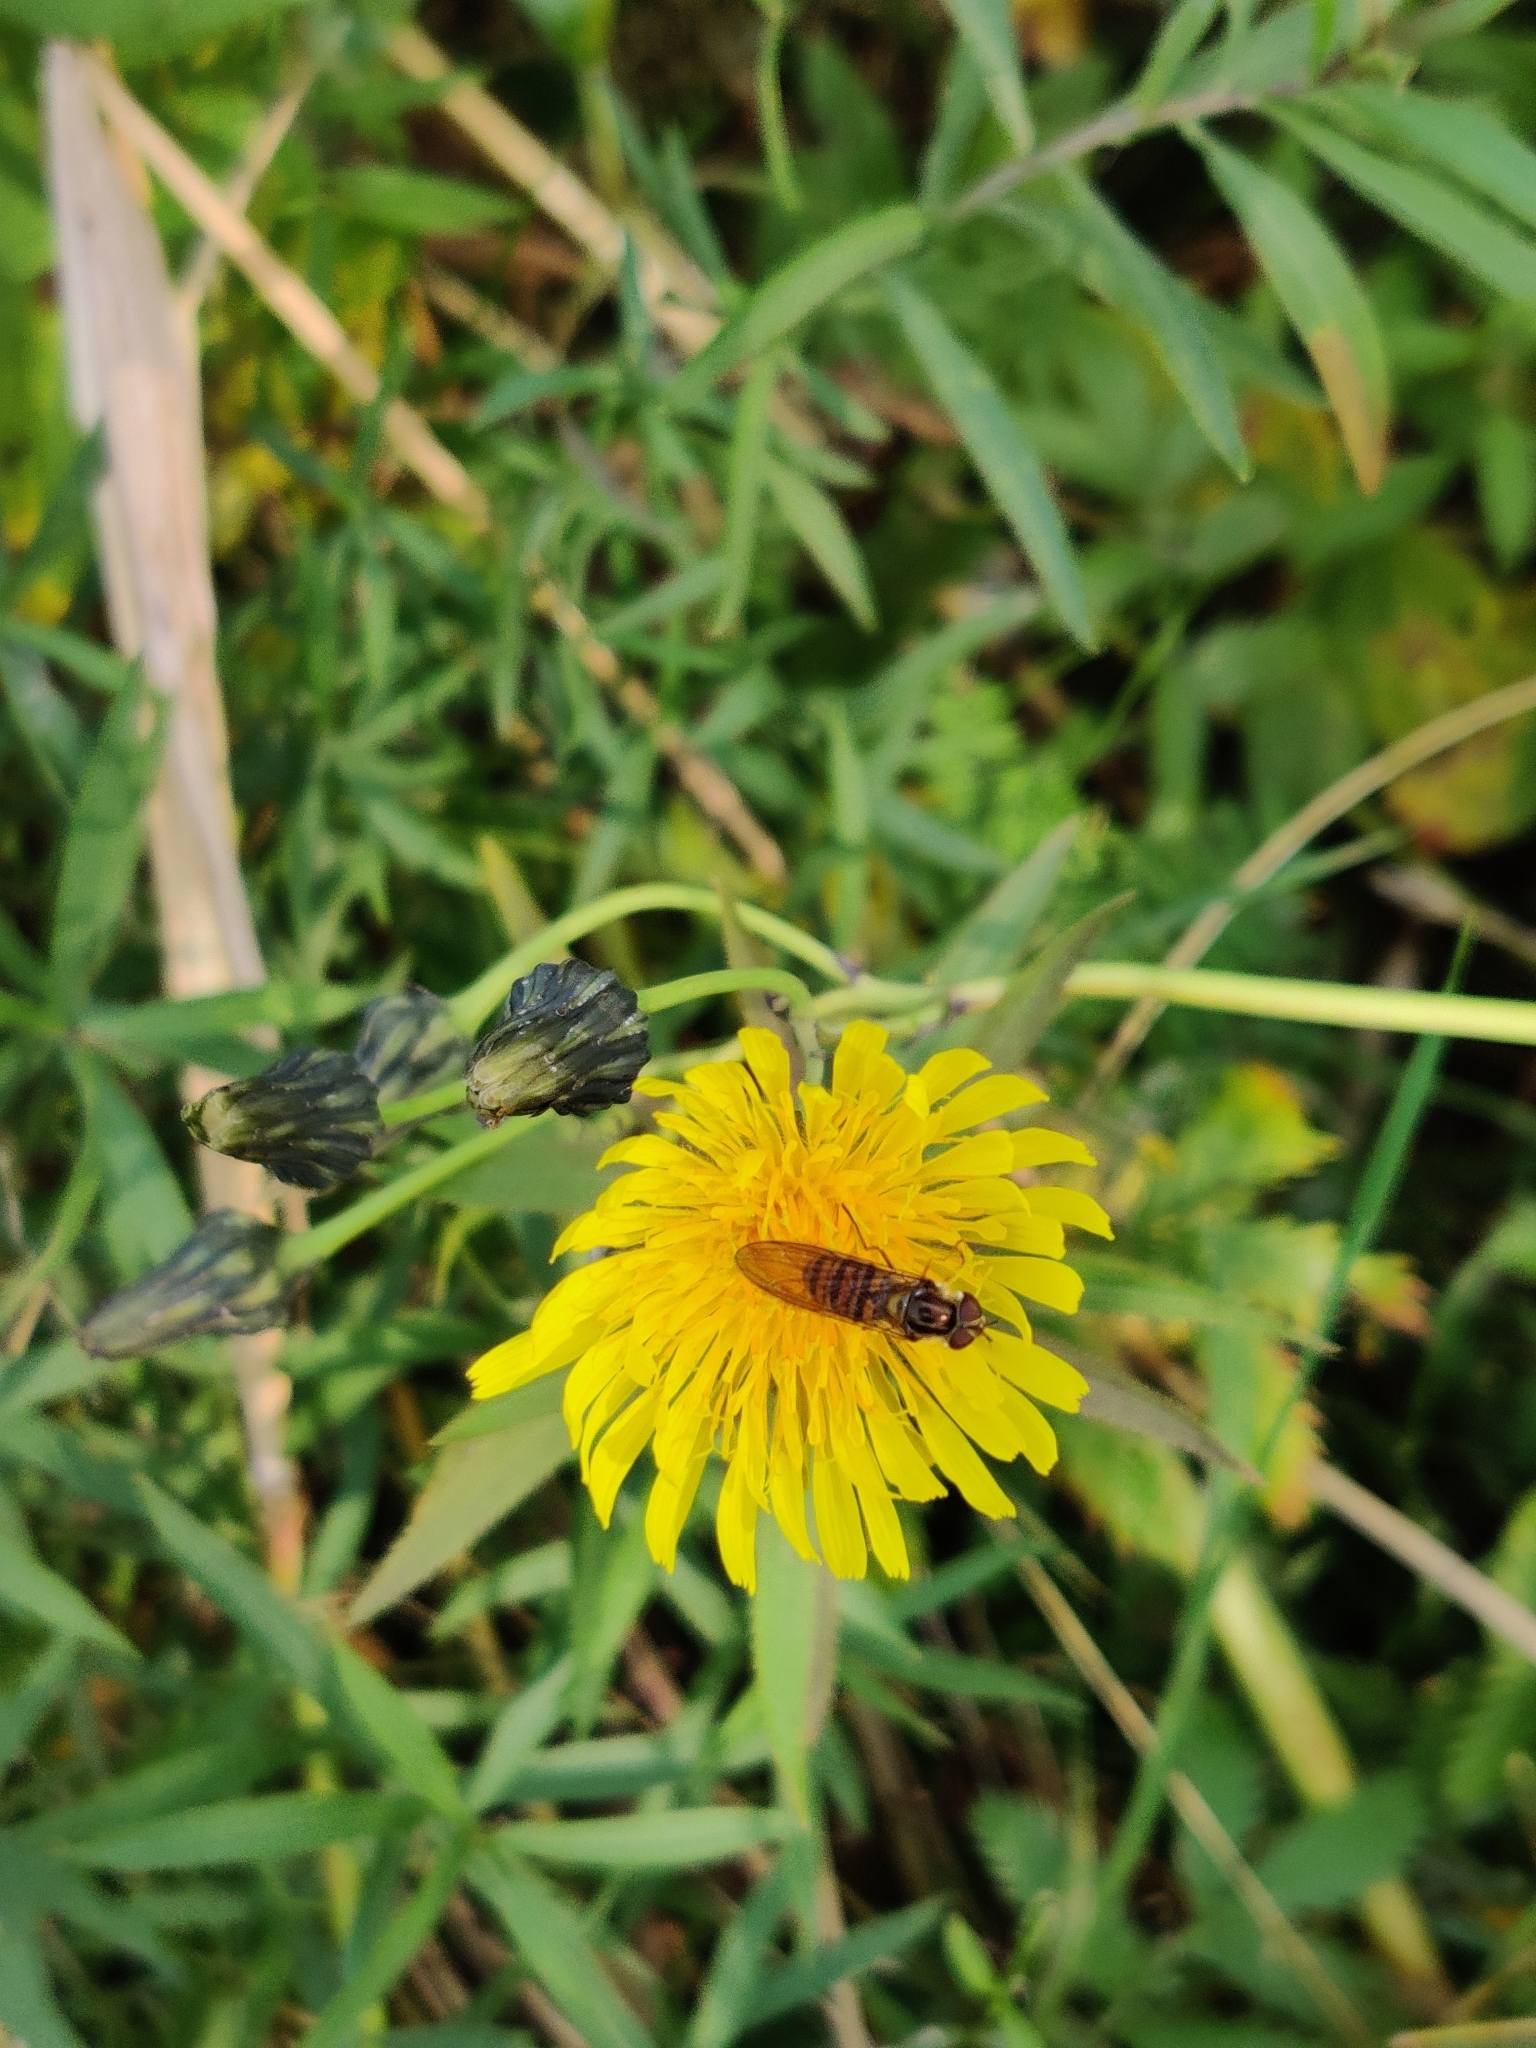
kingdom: Animalia
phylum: Arthropoda
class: Insecta
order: Diptera
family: Syrphidae
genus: Episyrphus
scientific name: Episyrphus balteatus
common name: Marmalade hoverfly
